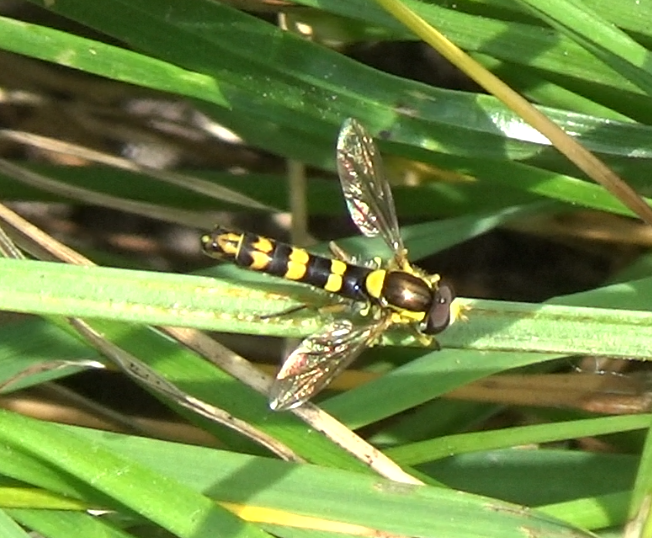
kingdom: Animalia
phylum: Arthropoda
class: Insecta
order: Diptera
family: Syrphidae
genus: Sphaerophoria
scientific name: Sphaerophoria scripta
